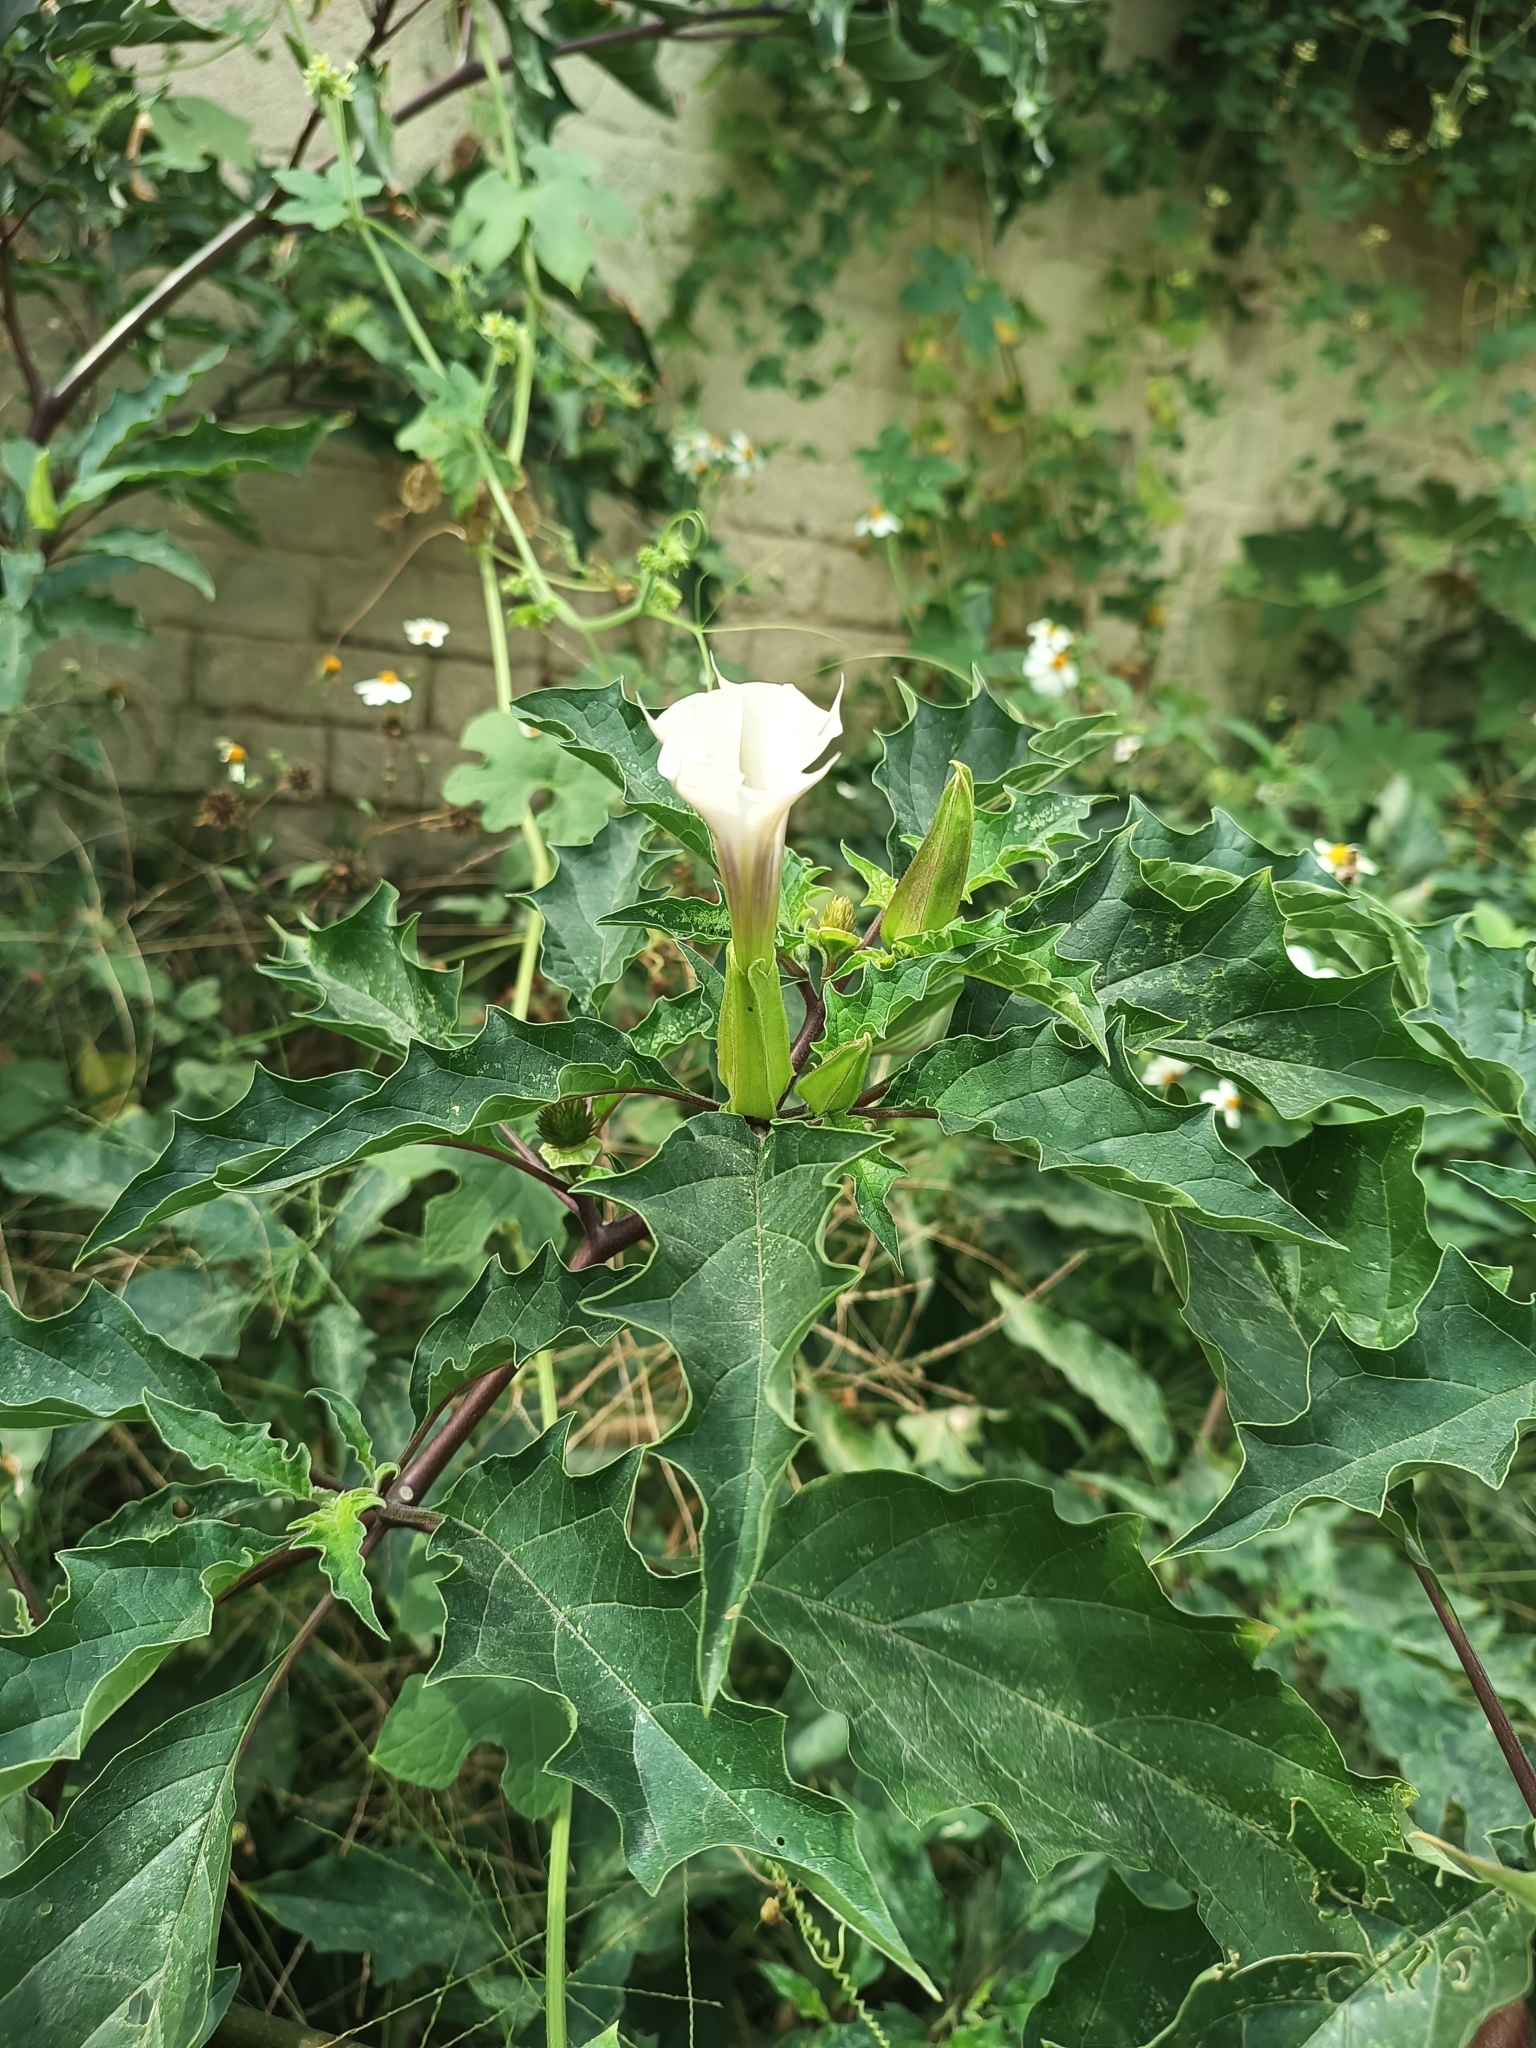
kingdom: Plantae
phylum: Tracheophyta
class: Magnoliopsida
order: Solanales
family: Solanaceae
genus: Datura
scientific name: Datura stramonium
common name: Thorn-apple
